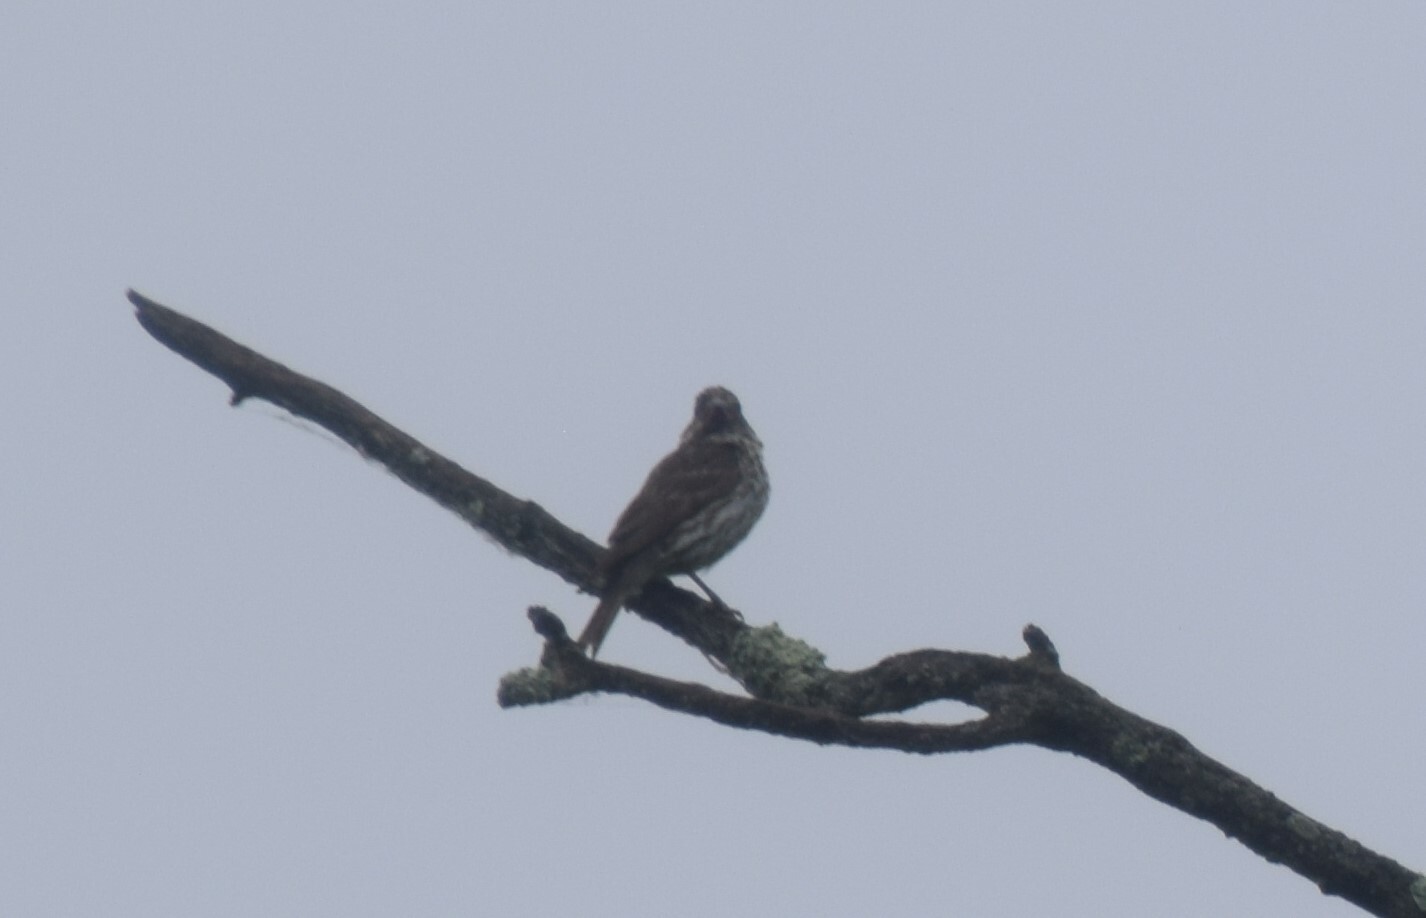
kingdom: Animalia
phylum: Chordata
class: Aves
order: Passeriformes
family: Fringillidae
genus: Haemorhous
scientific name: Haemorhous purpureus
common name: Purple finch
